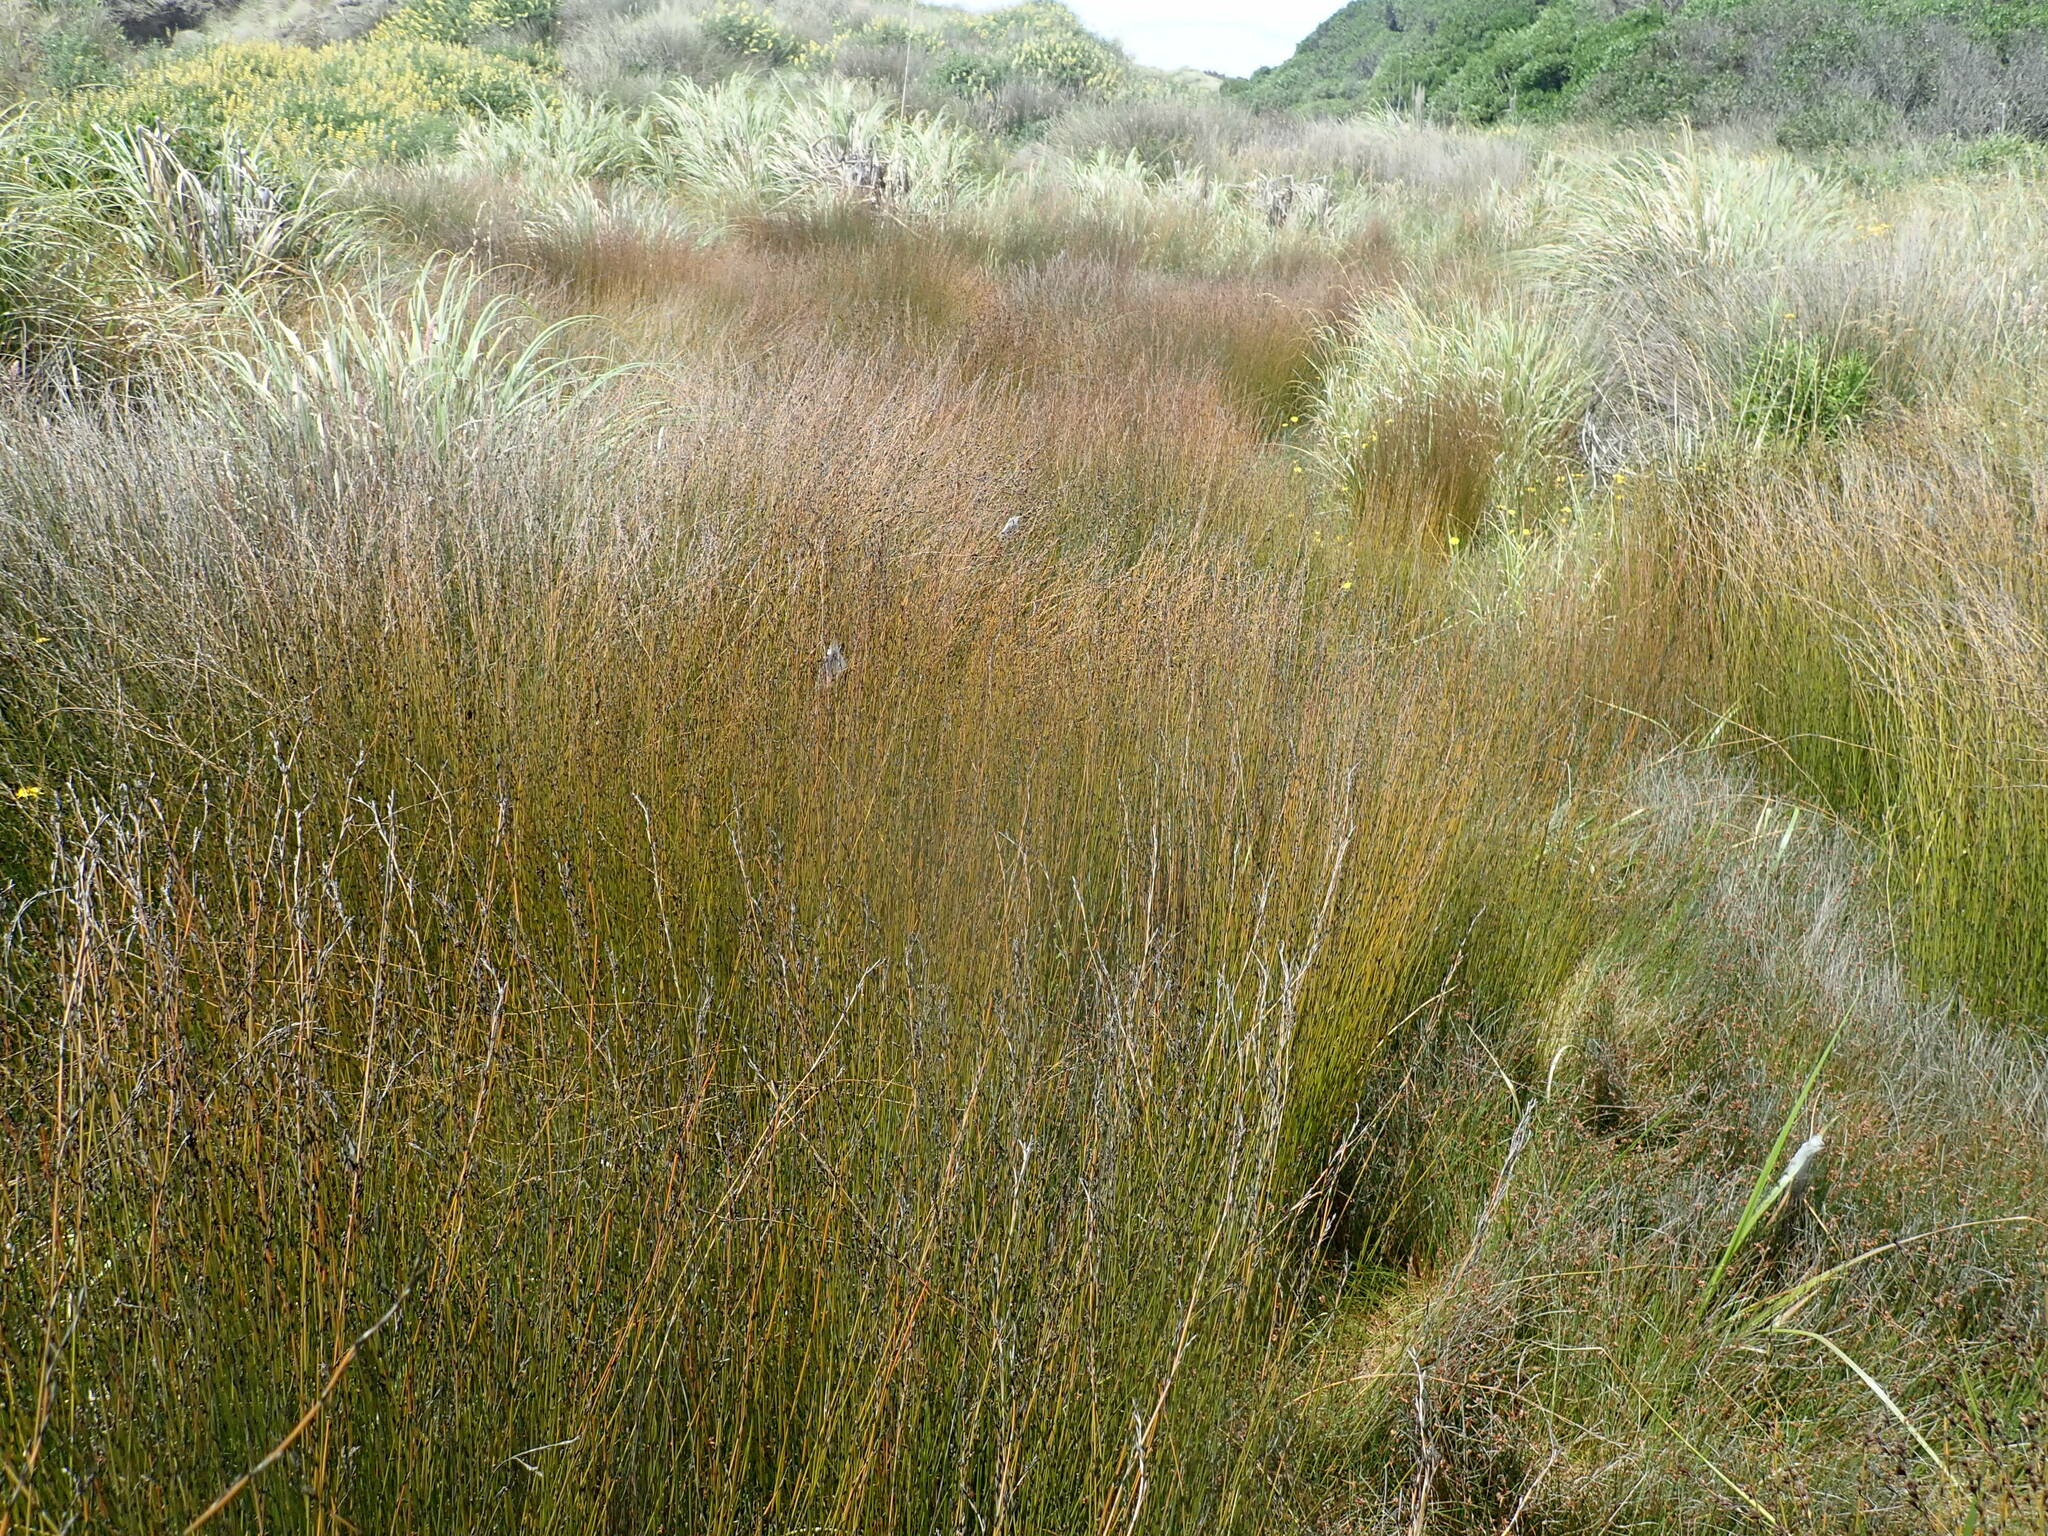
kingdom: Plantae
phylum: Tracheophyta
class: Liliopsida
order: Poales
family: Restionaceae
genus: Apodasmia
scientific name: Apodasmia similis
